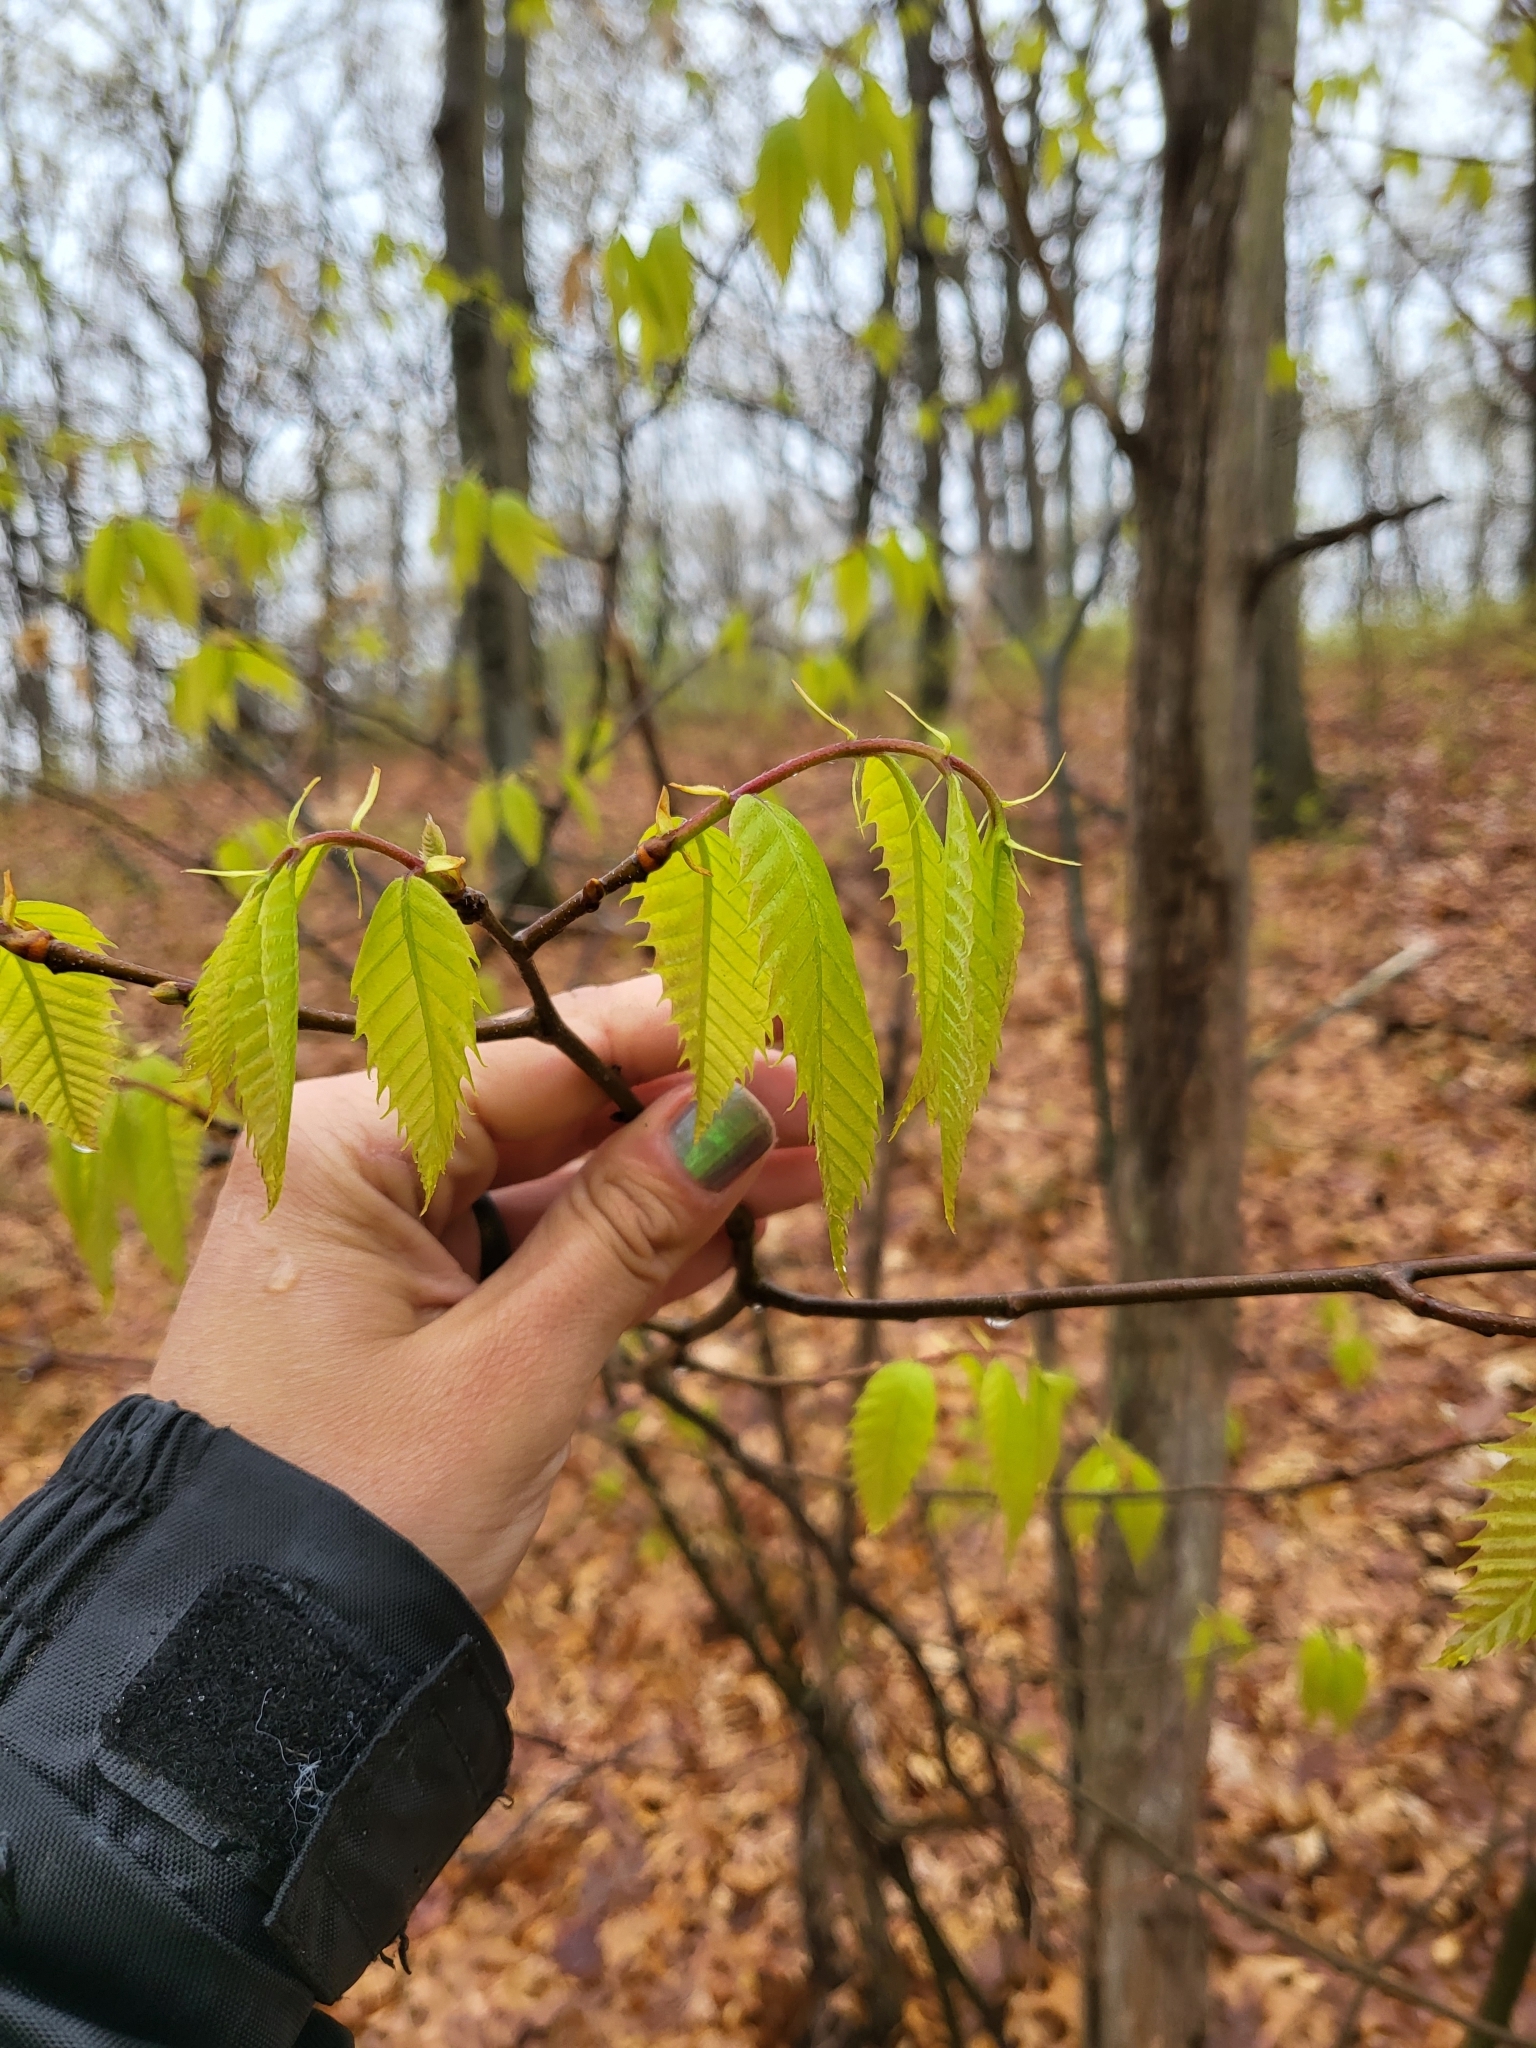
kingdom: Plantae
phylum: Tracheophyta
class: Magnoliopsida
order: Fagales
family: Fagaceae
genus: Castanea
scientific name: Castanea dentata
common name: American chestnut
